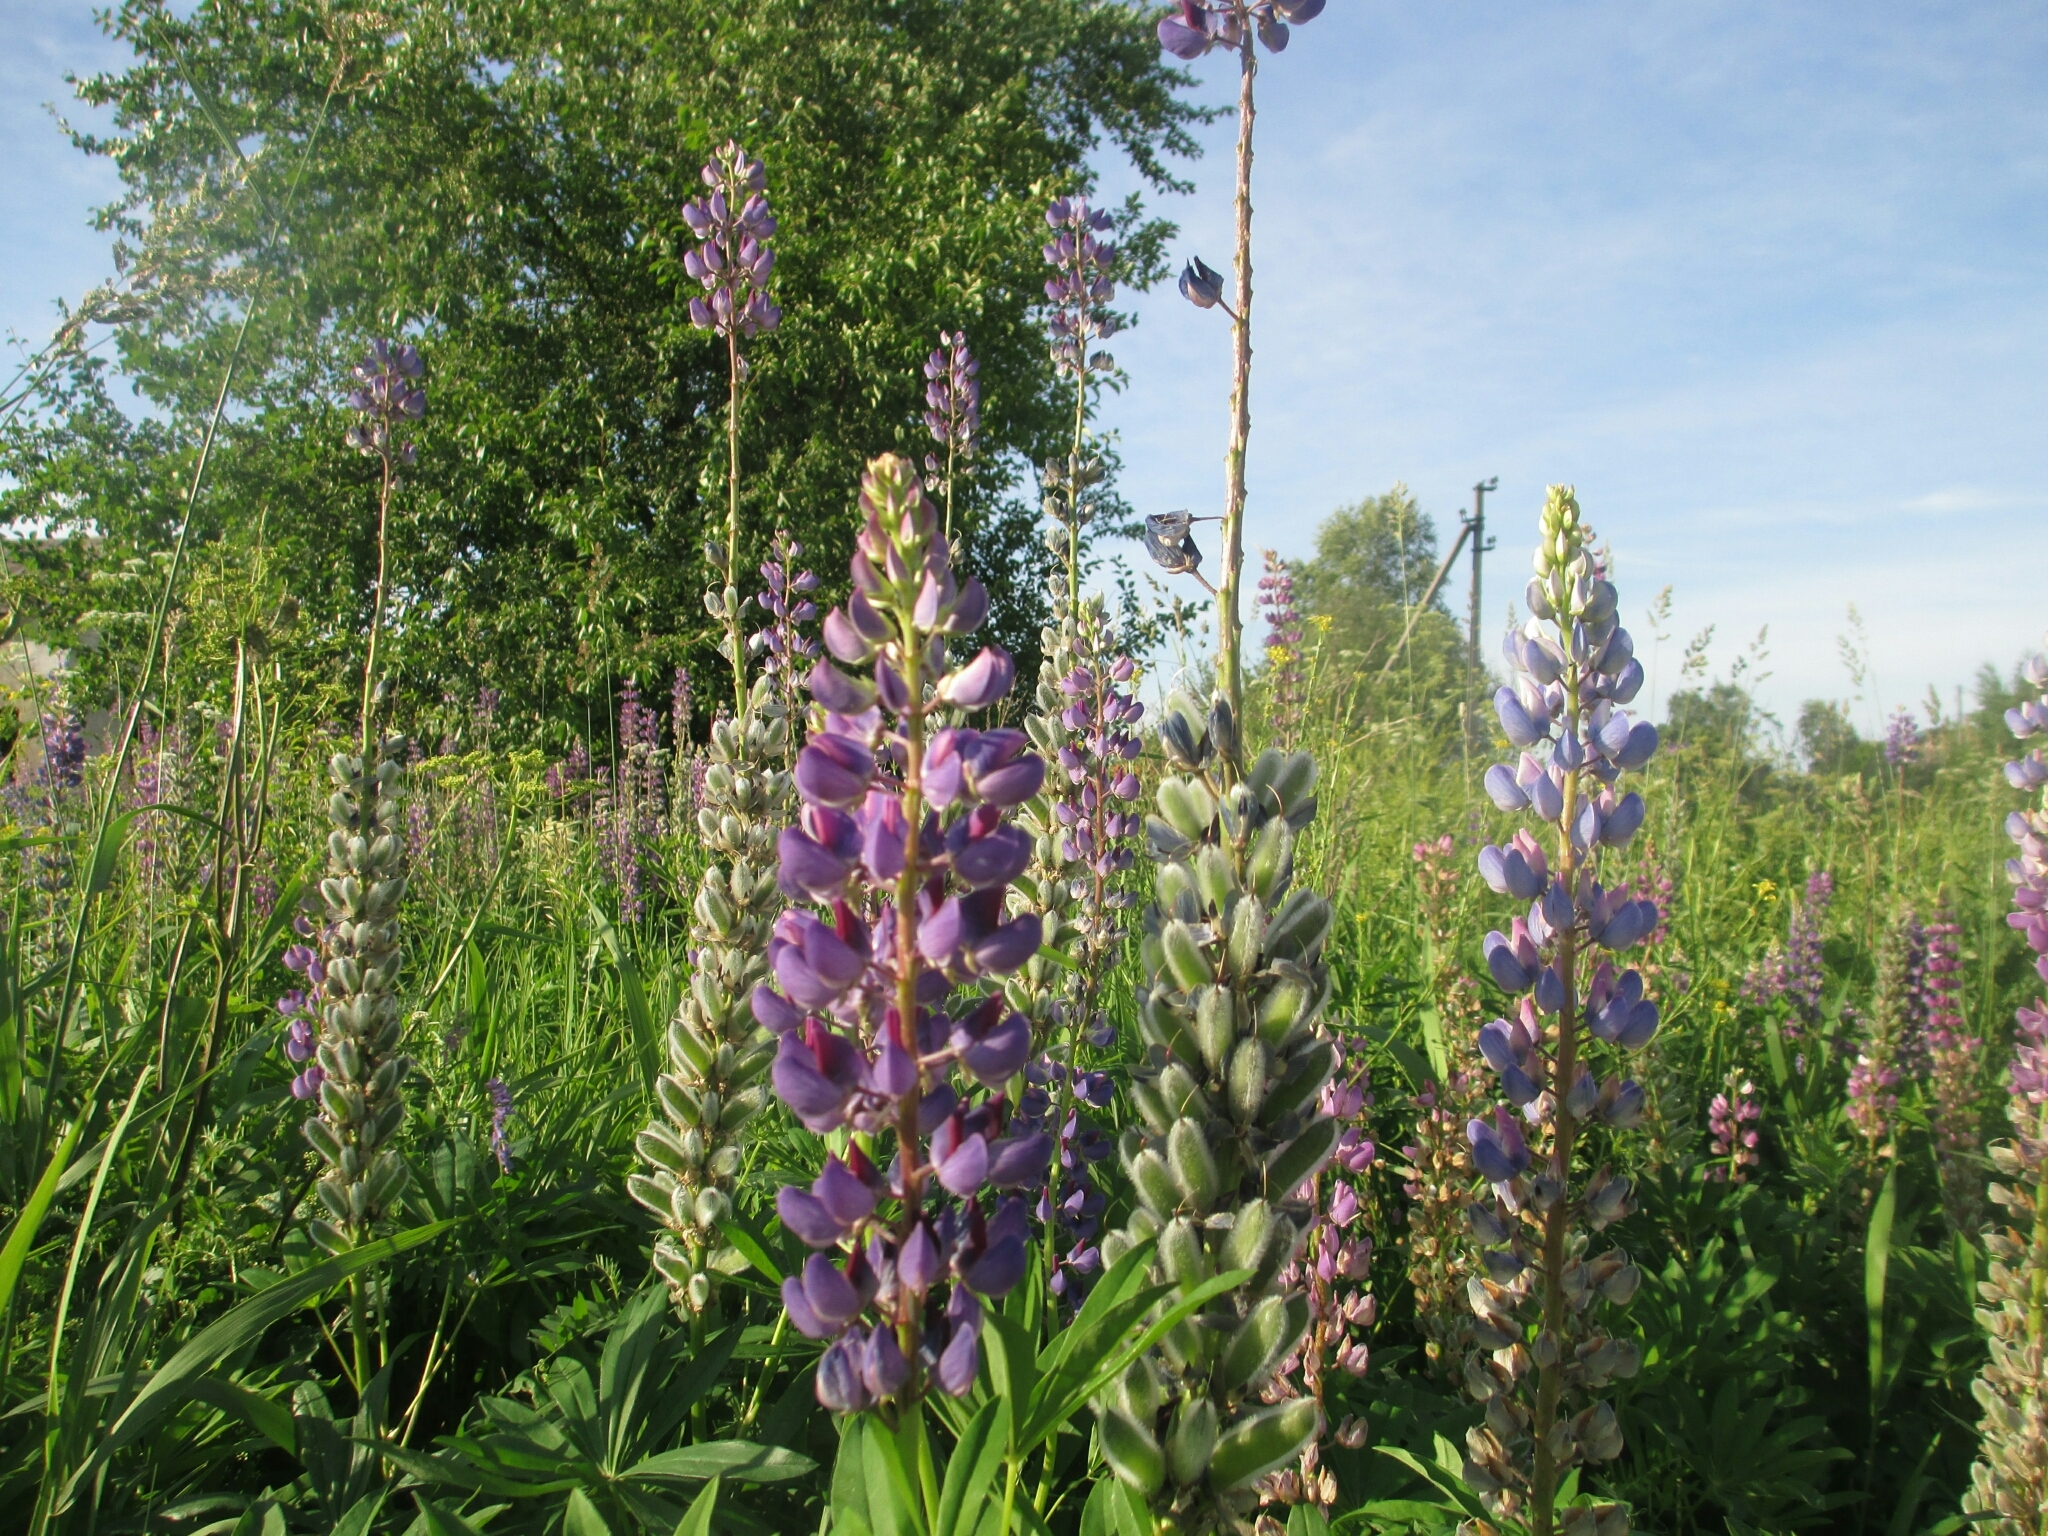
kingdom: Plantae
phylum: Tracheophyta
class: Magnoliopsida
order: Fabales
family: Fabaceae
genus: Lupinus
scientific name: Lupinus polyphyllus
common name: Garden lupin
